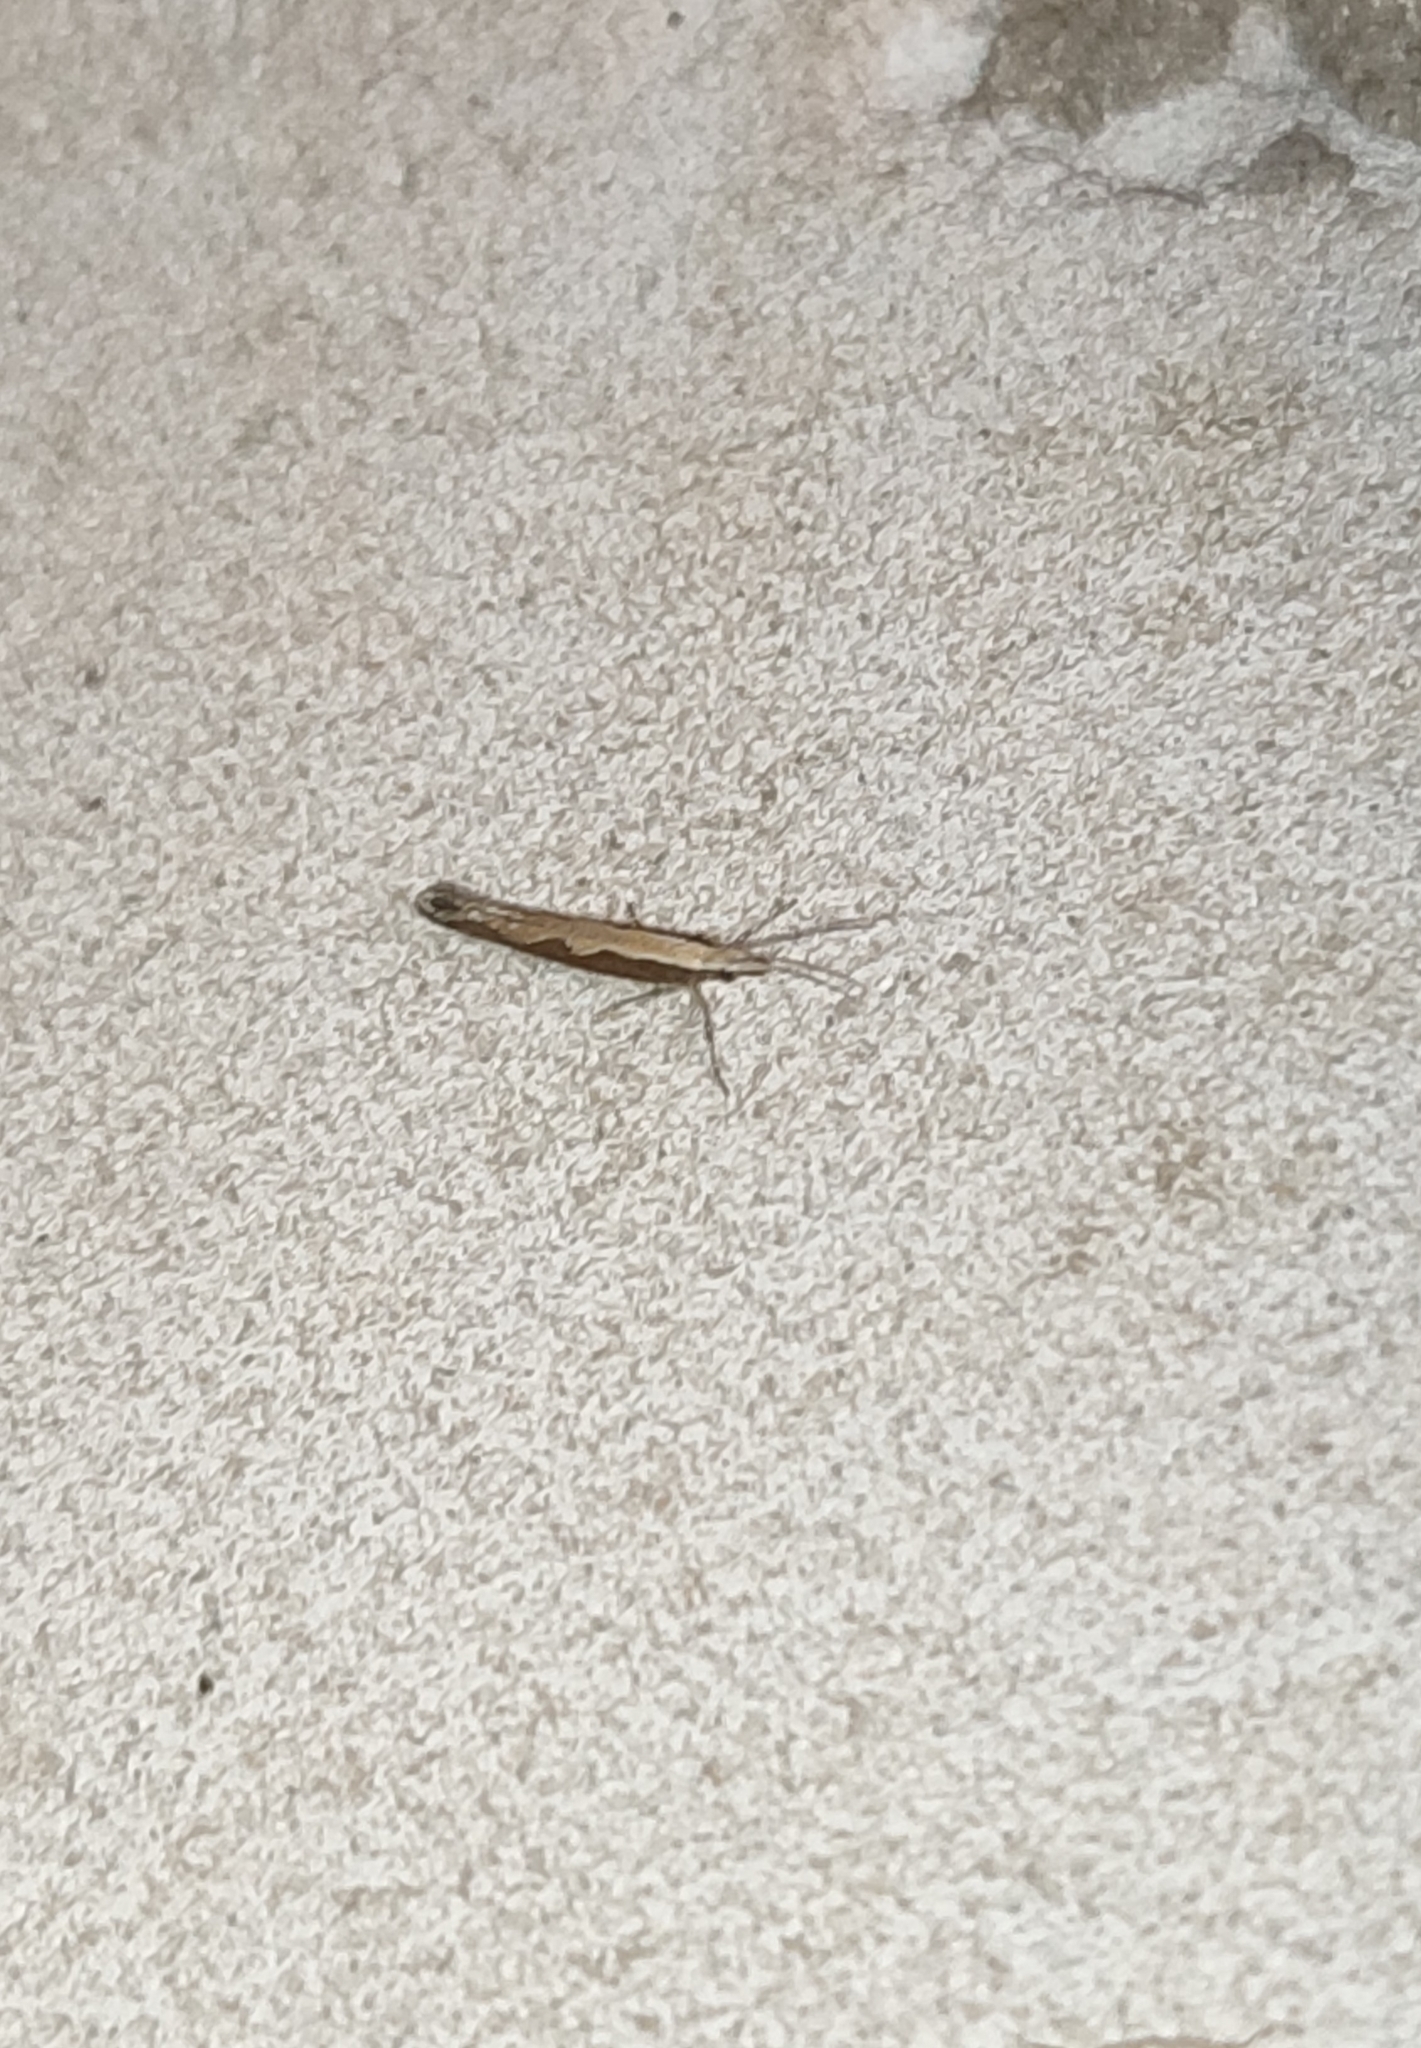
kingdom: Animalia
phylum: Arthropoda
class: Insecta
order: Lepidoptera
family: Plutellidae
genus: Plutella
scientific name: Plutella xylostella
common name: Diamond-back moth
